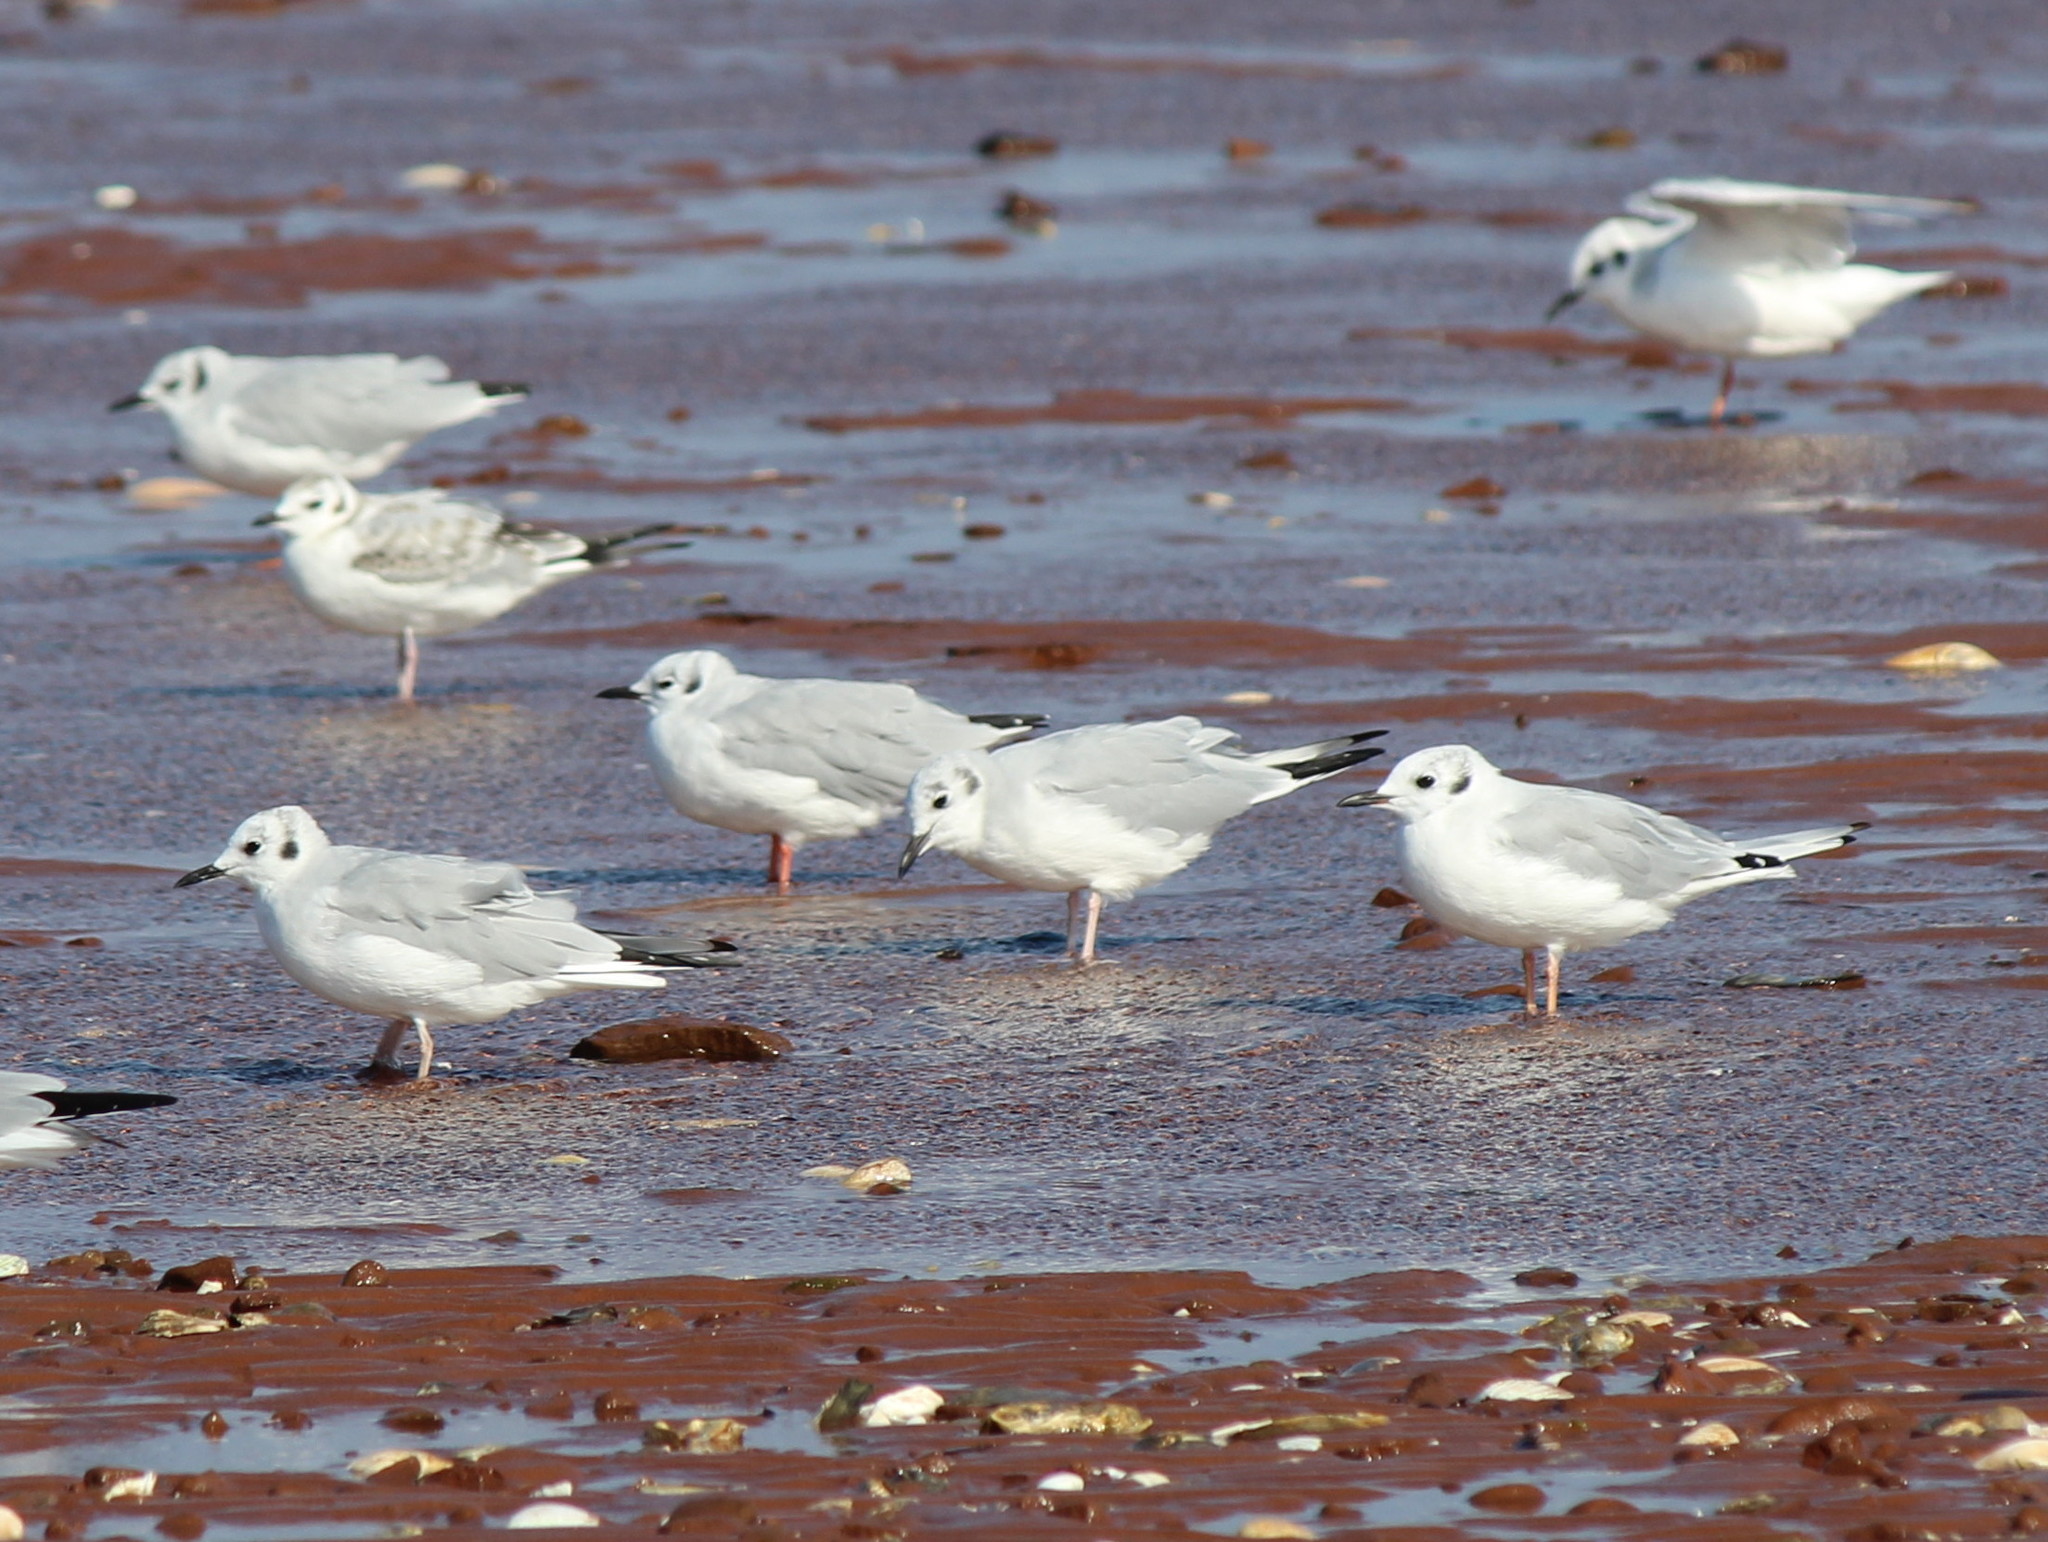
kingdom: Animalia
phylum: Chordata
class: Aves
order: Charadriiformes
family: Laridae
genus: Chroicocephalus
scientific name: Chroicocephalus philadelphia
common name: Bonaparte's gull
